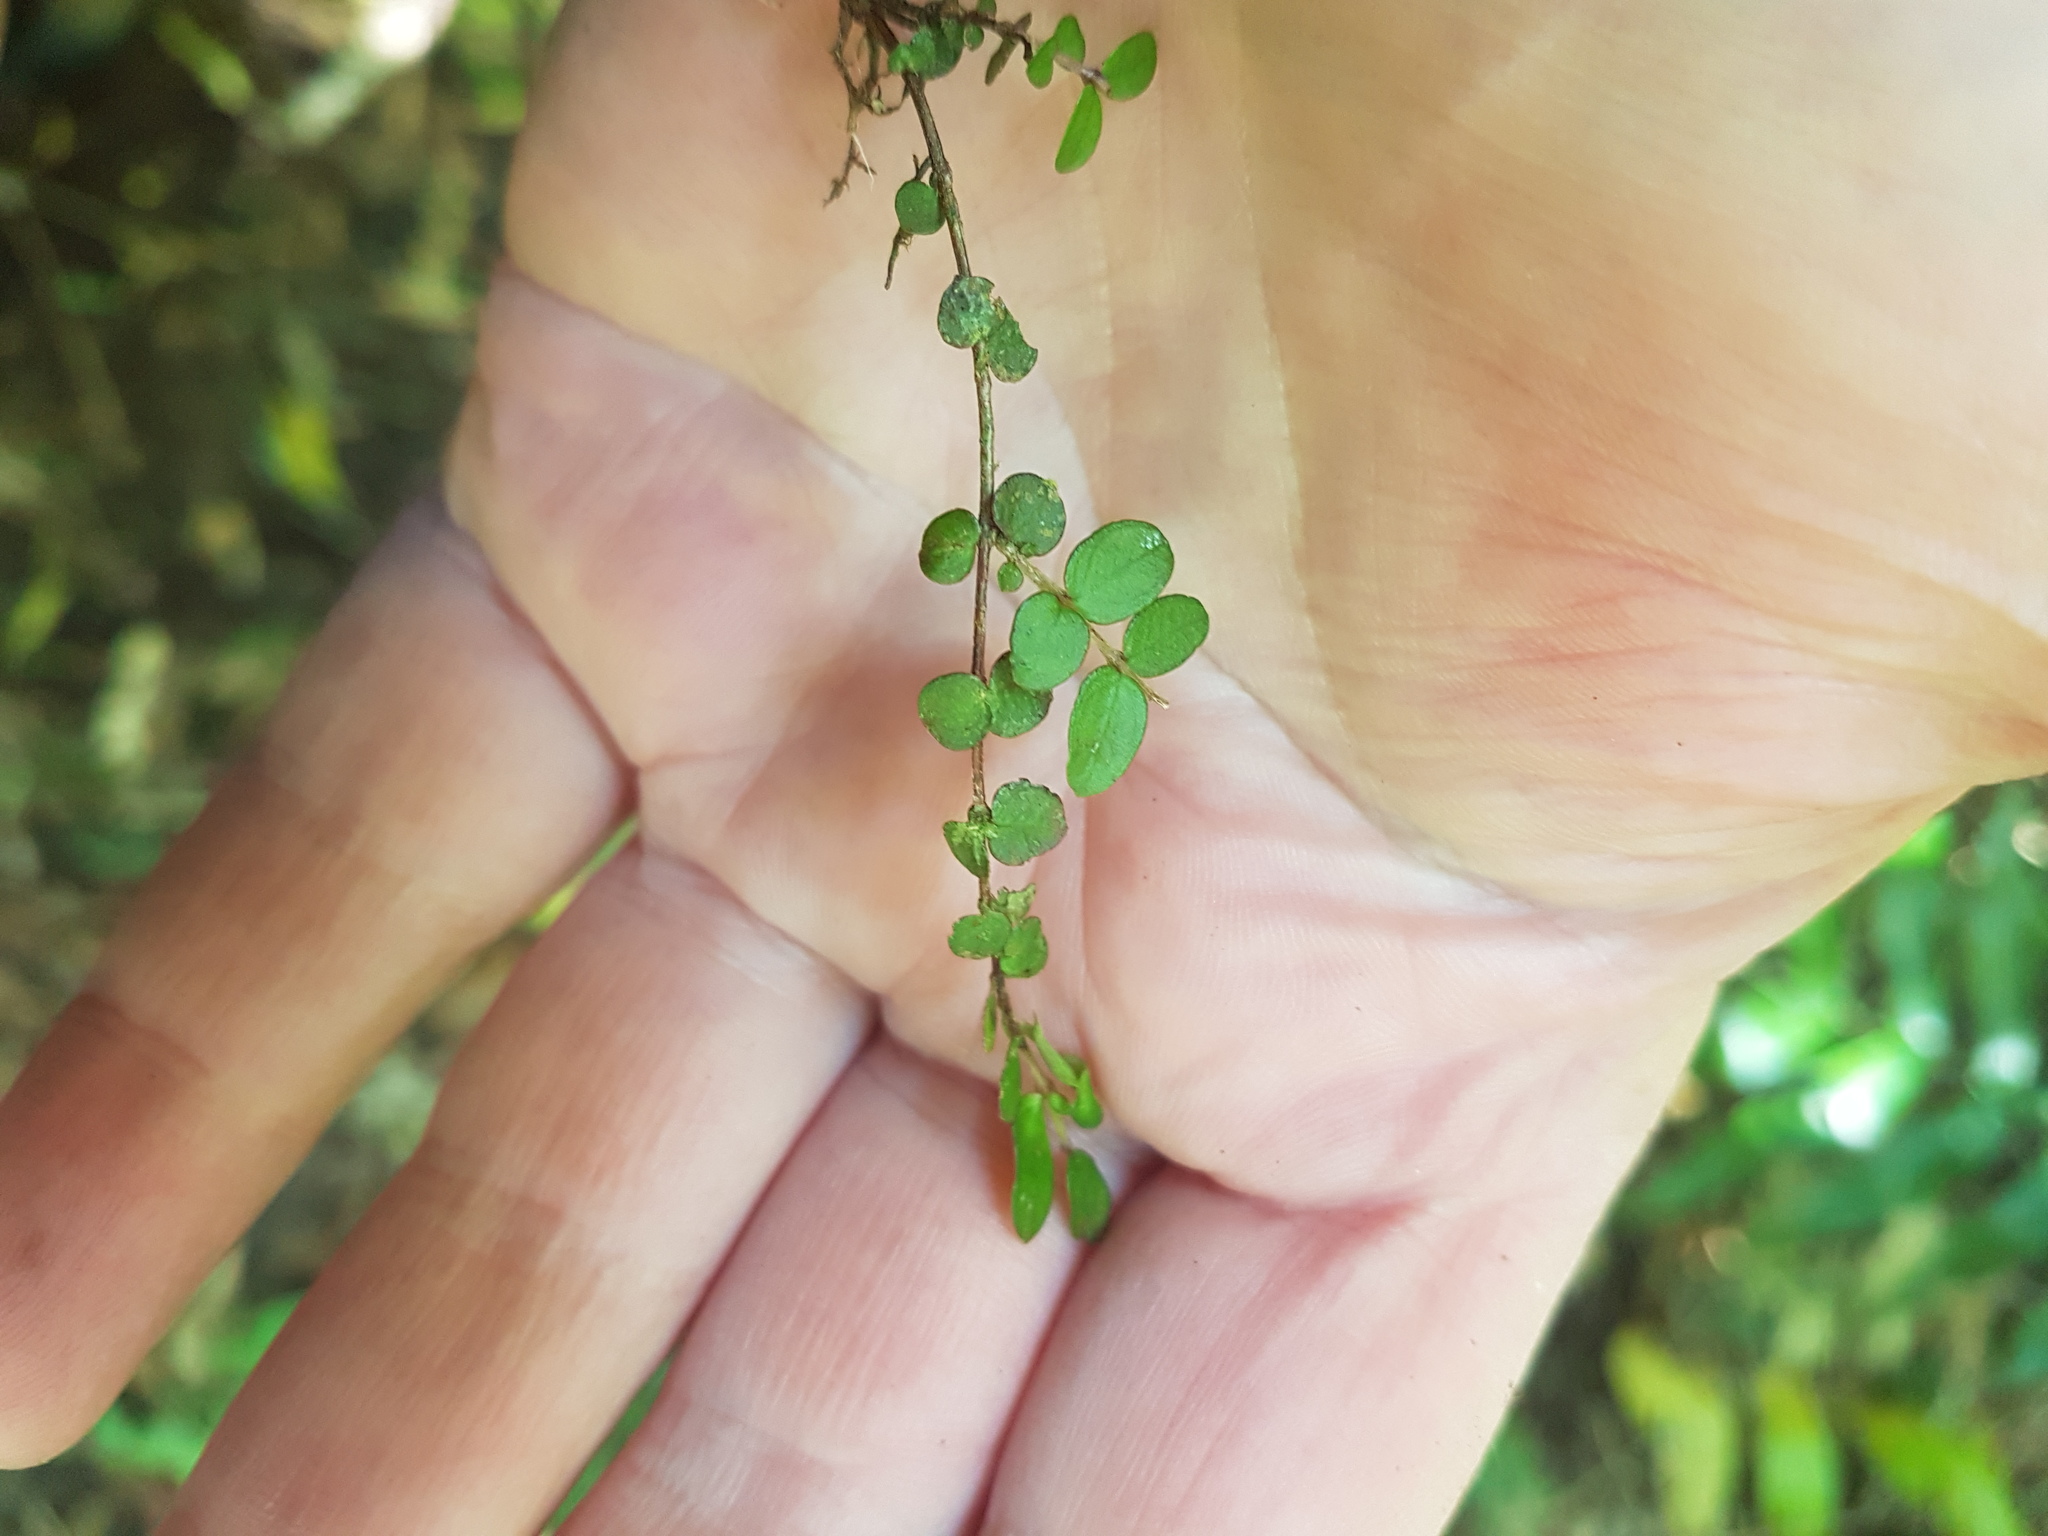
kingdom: Plantae
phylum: Tracheophyta
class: Magnoliopsida
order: Myrtales
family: Myrtaceae
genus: Metrosideros
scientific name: Metrosideros diffusa
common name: Small ratavine
